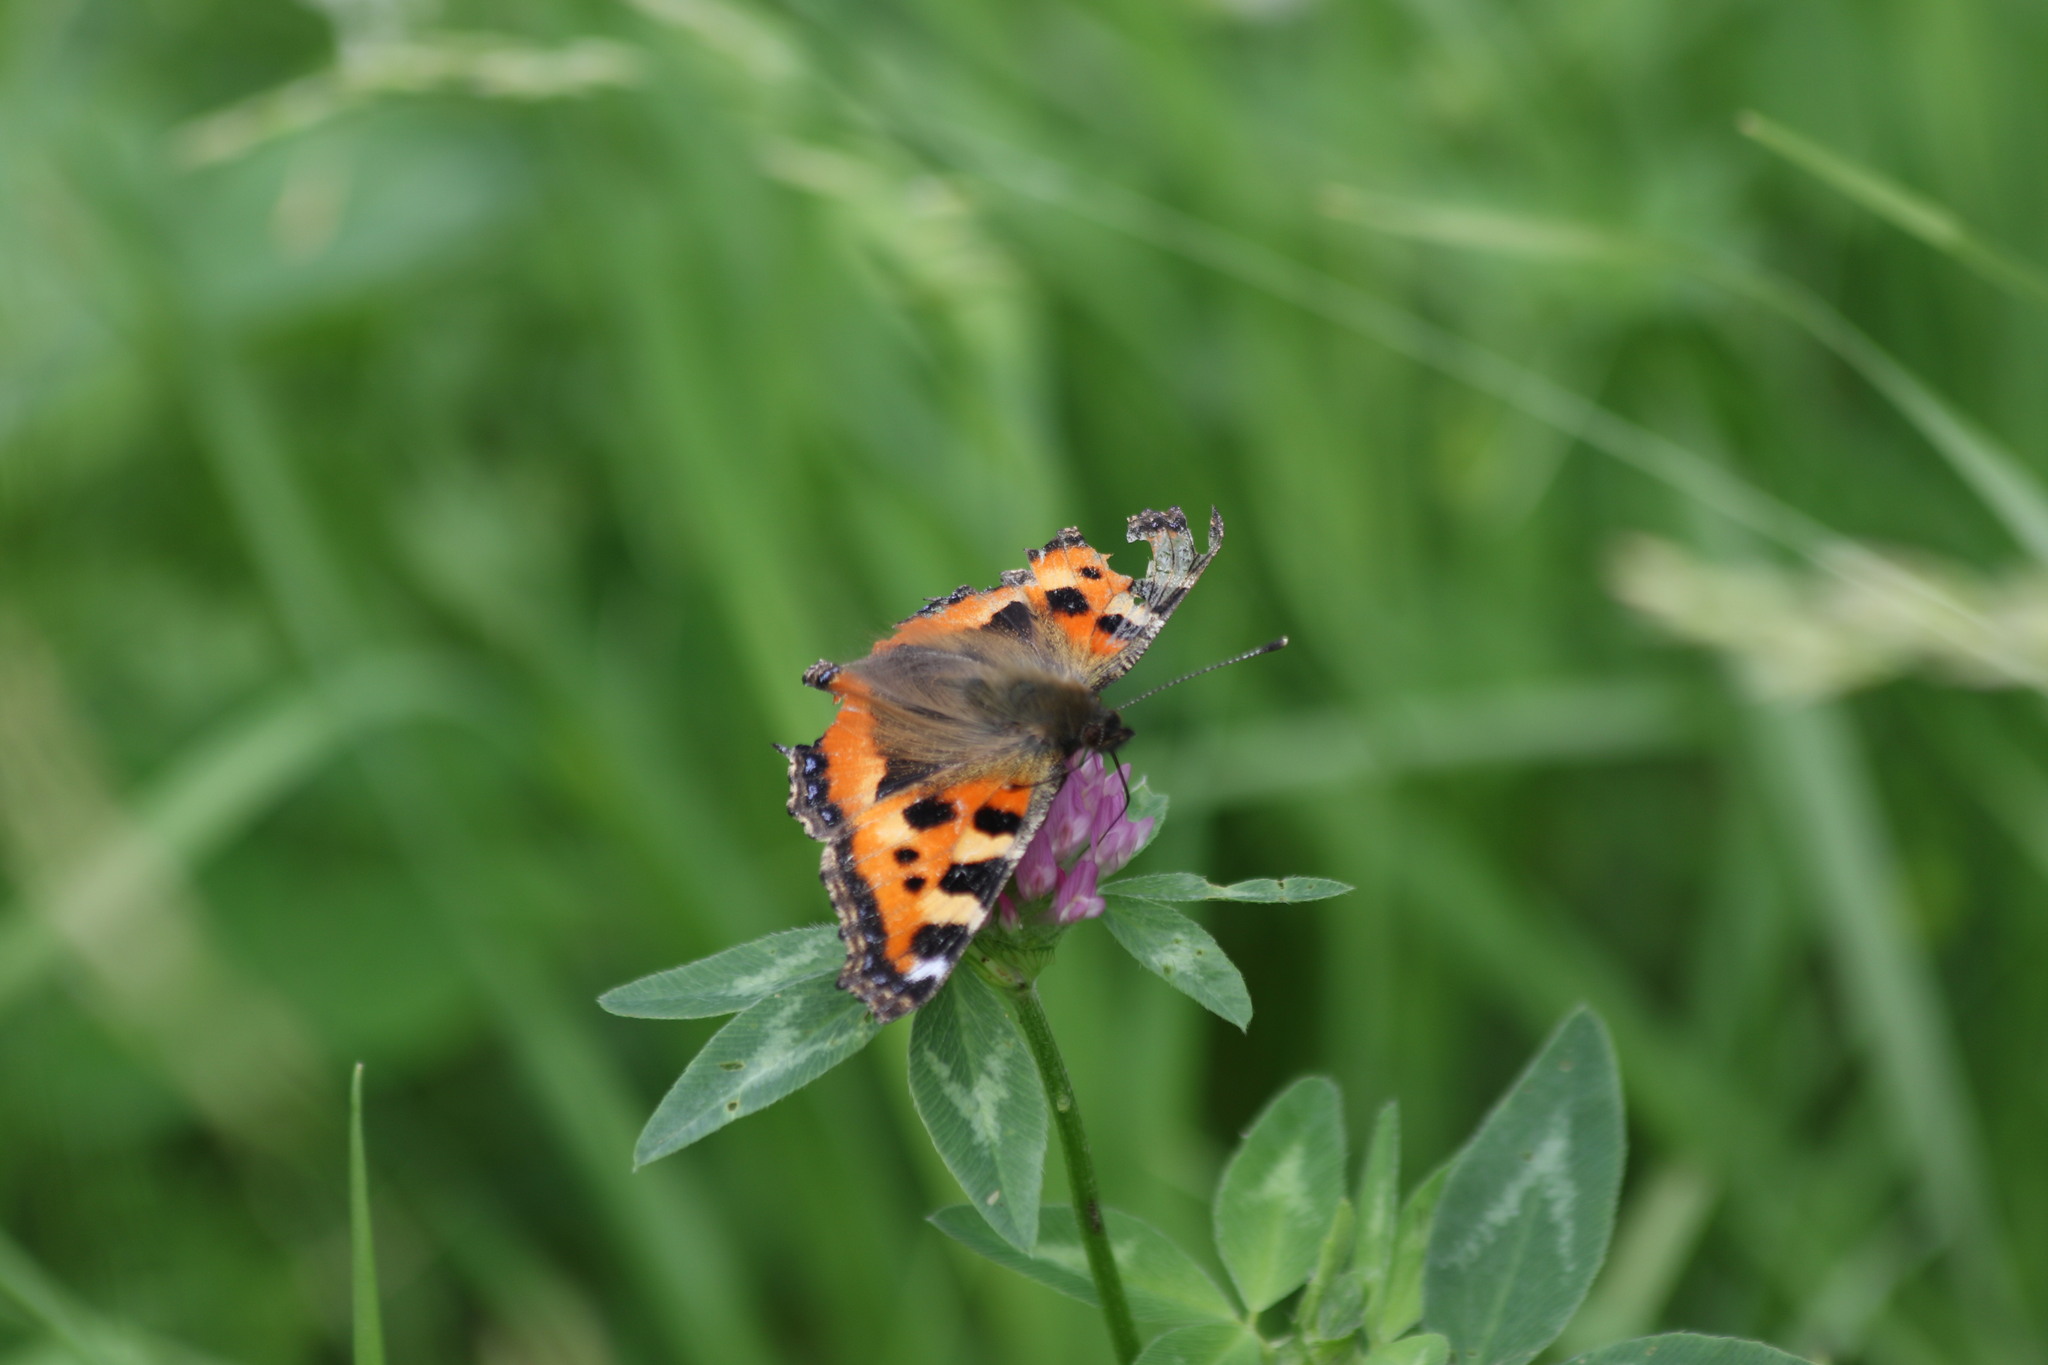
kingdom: Animalia
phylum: Arthropoda
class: Insecta
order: Lepidoptera
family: Nymphalidae
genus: Aglais
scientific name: Aglais urticae
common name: Small tortoiseshell
